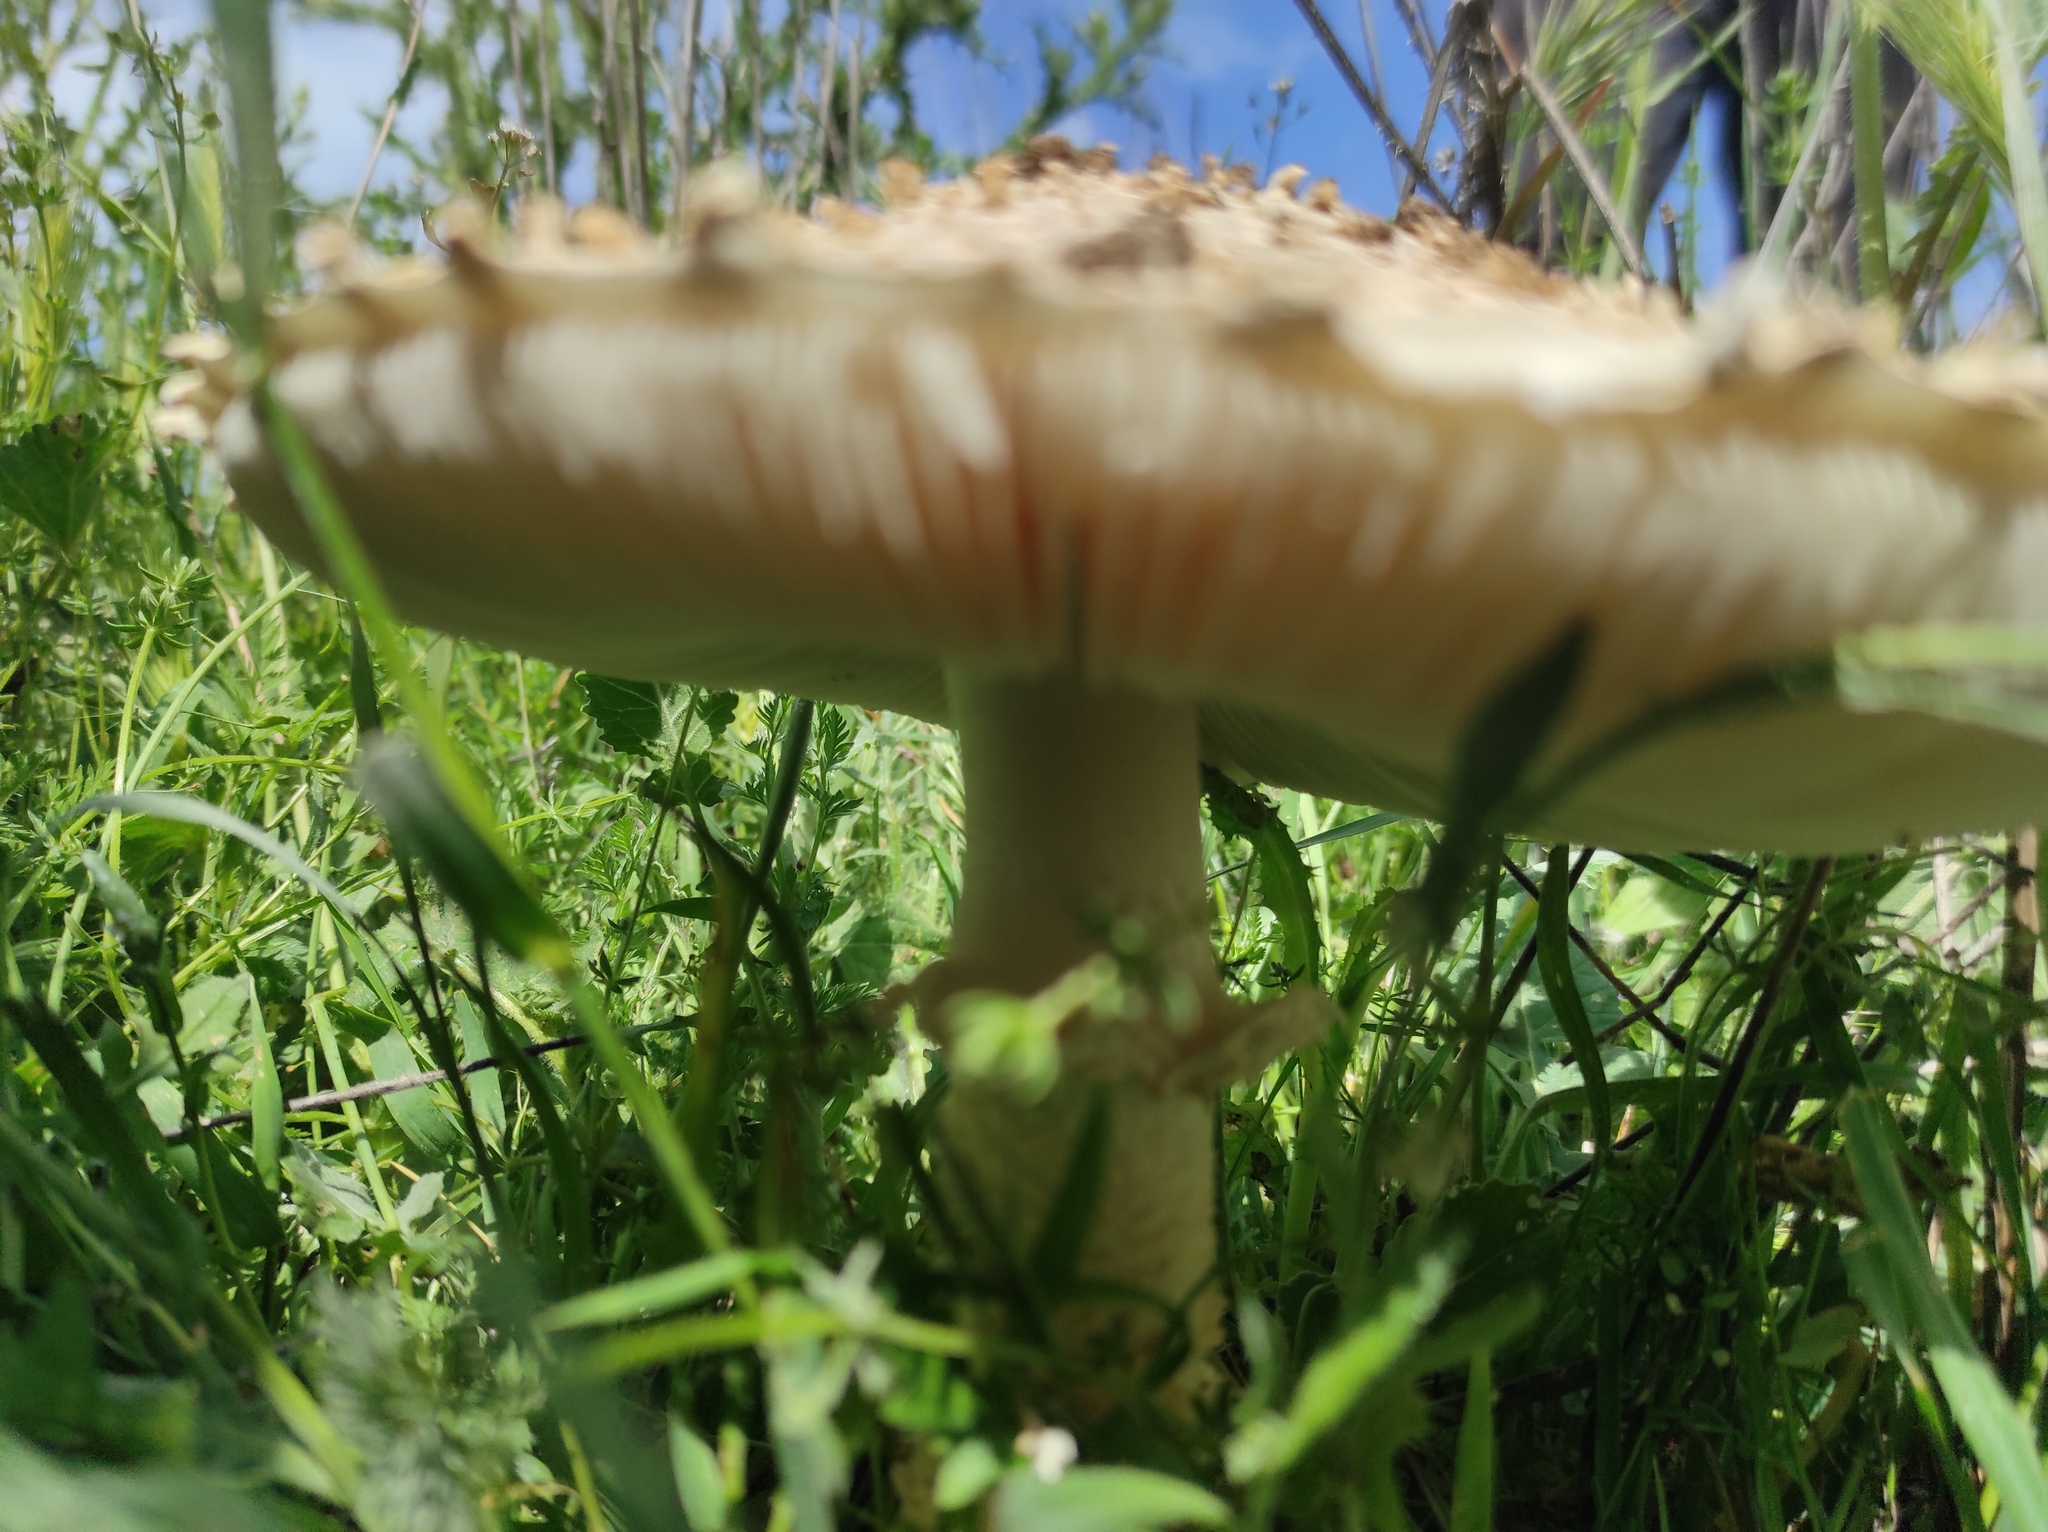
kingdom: Fungi
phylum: Basidiomycota
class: Agaricomycetes
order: Agaricales
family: Amanitaceae
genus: Amanita
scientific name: Amanita vittadinii
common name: Barefoot amanita
